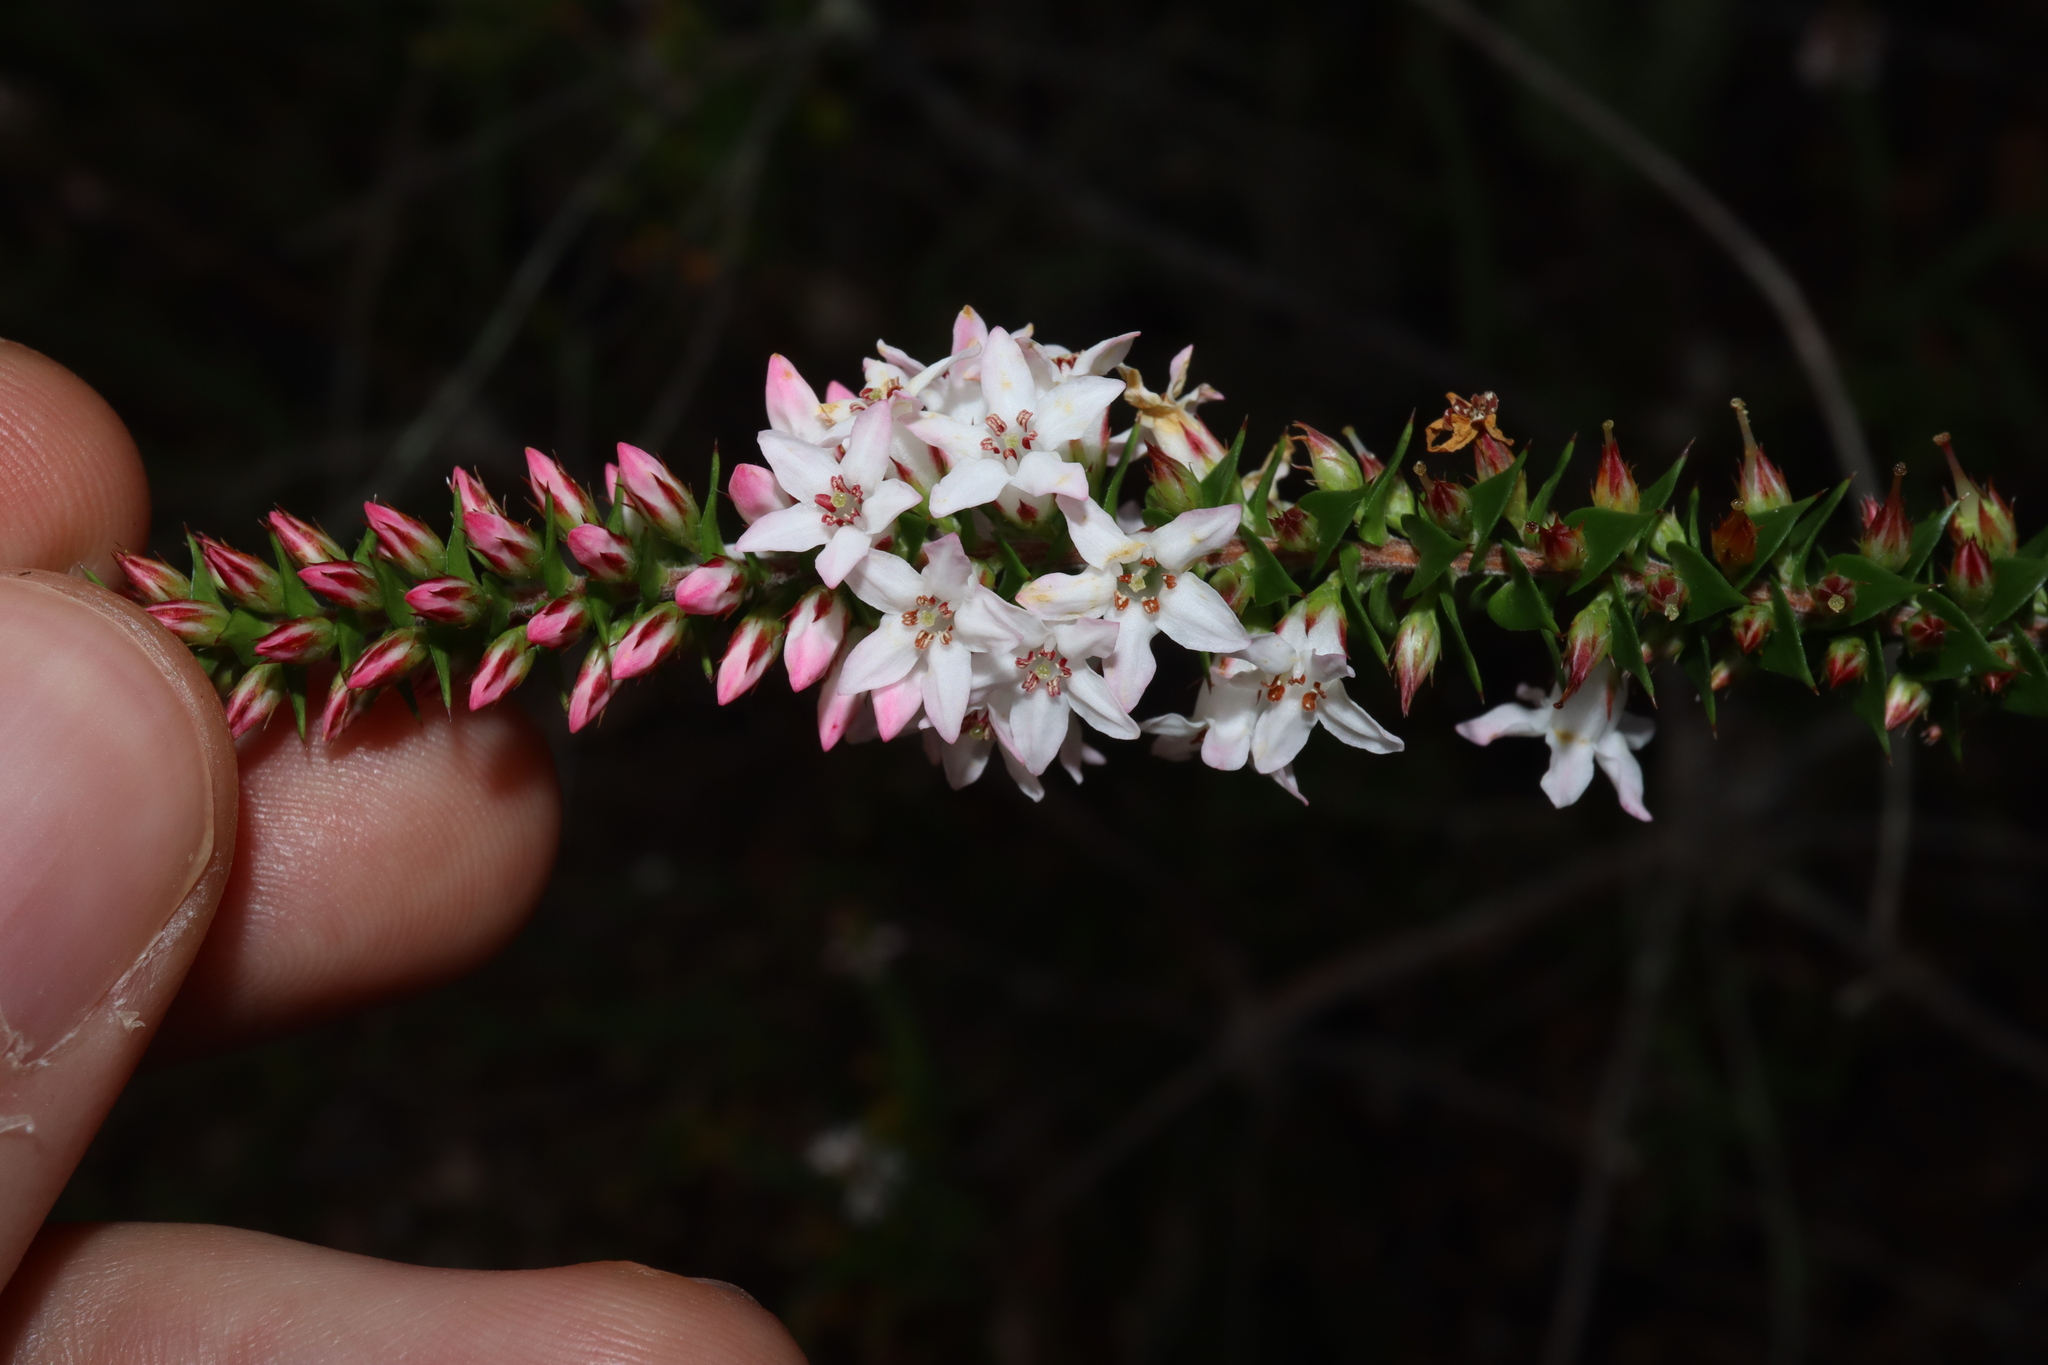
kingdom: Plantae
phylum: Tracheophyta
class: Magnoliopsida
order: Ericales
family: Ericaceae
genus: Epacris
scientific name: Epacris pulchella
